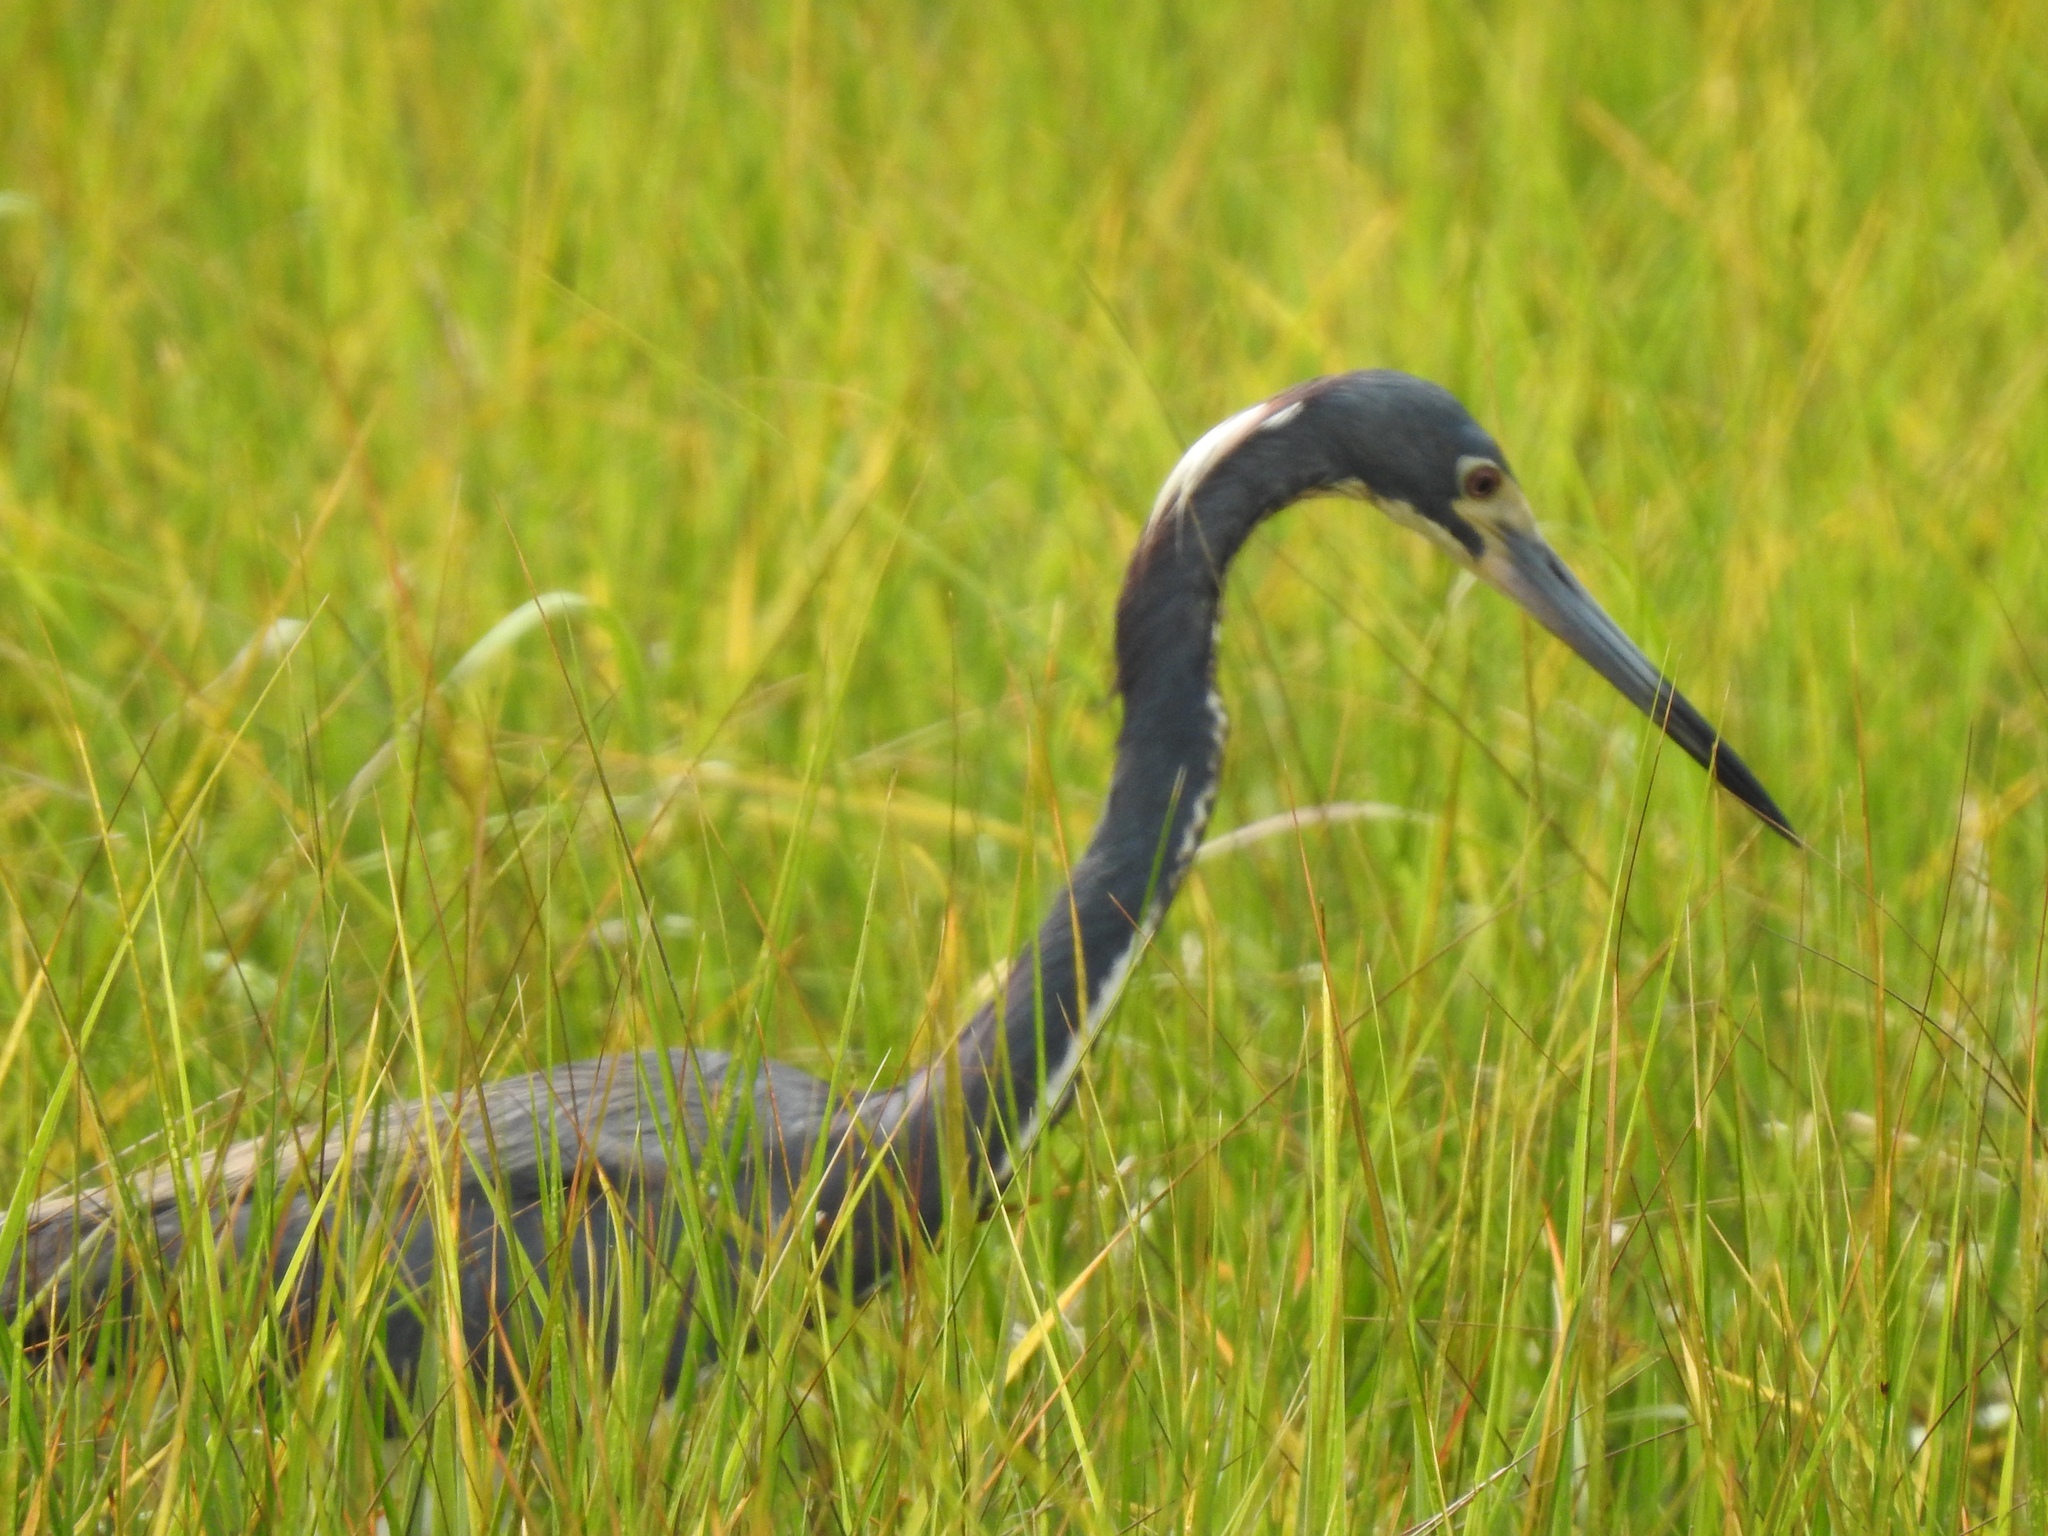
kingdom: Animalia
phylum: Chordata
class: Aves
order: Pelecaniformes
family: Ardeidae
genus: Egretta
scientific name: Egretta tricolor
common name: Tricolored heron
